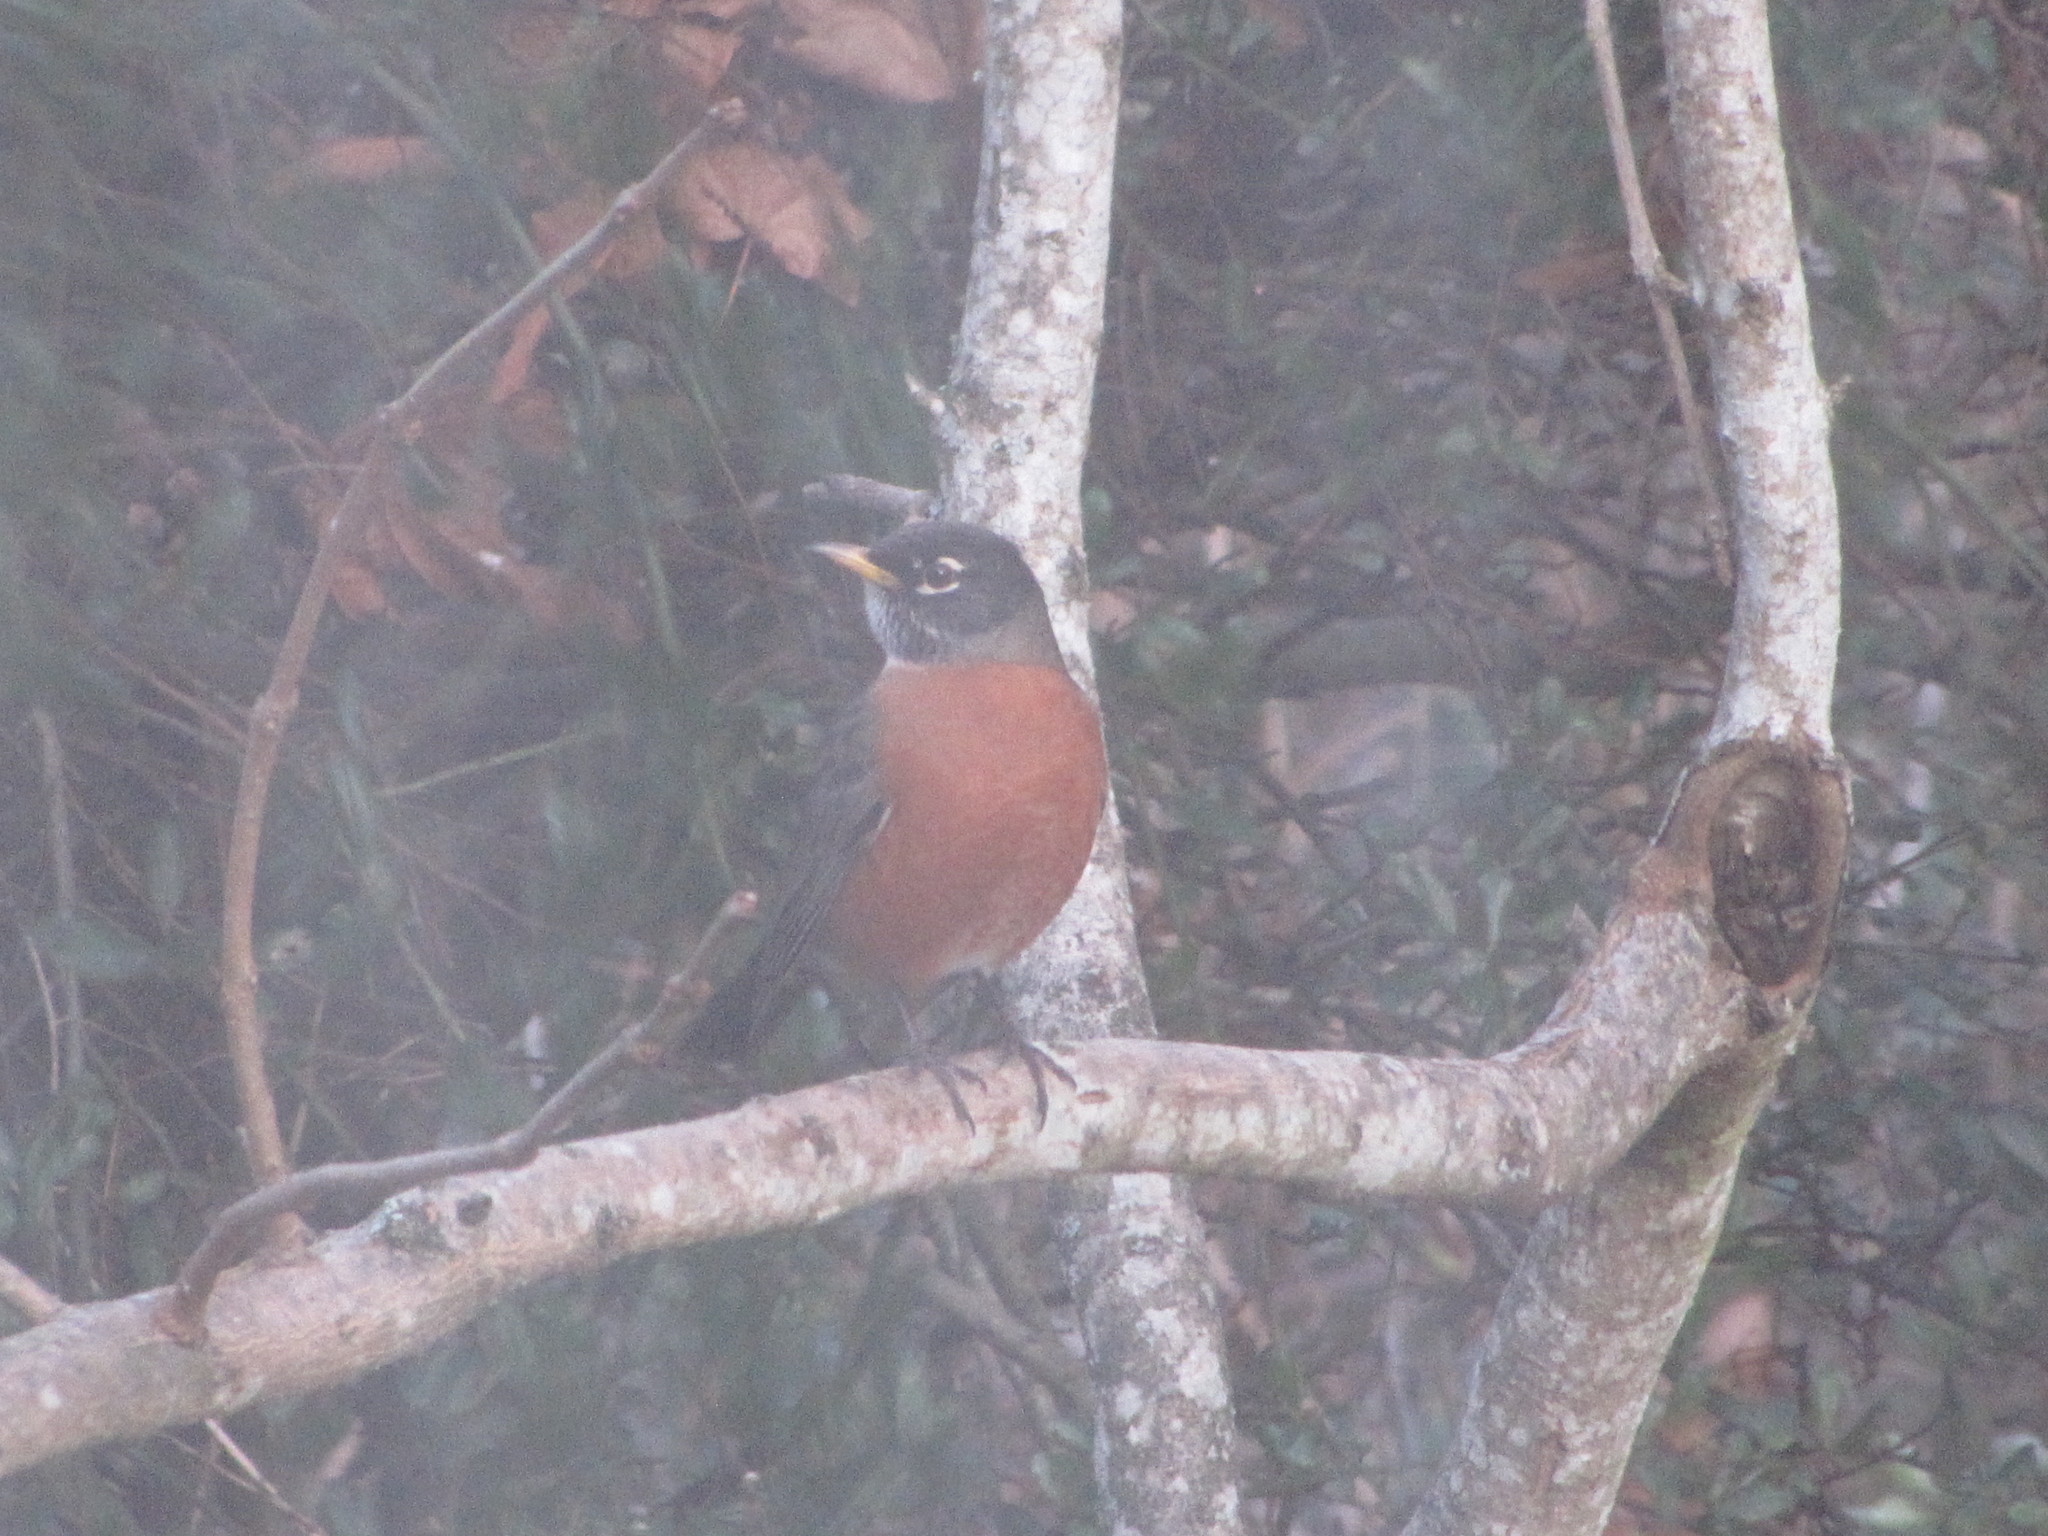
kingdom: Animalia
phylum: Chordata
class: Aves
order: Passeriformes
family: Turdidae
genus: Turdus
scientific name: Turdus migratorius
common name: American robin
